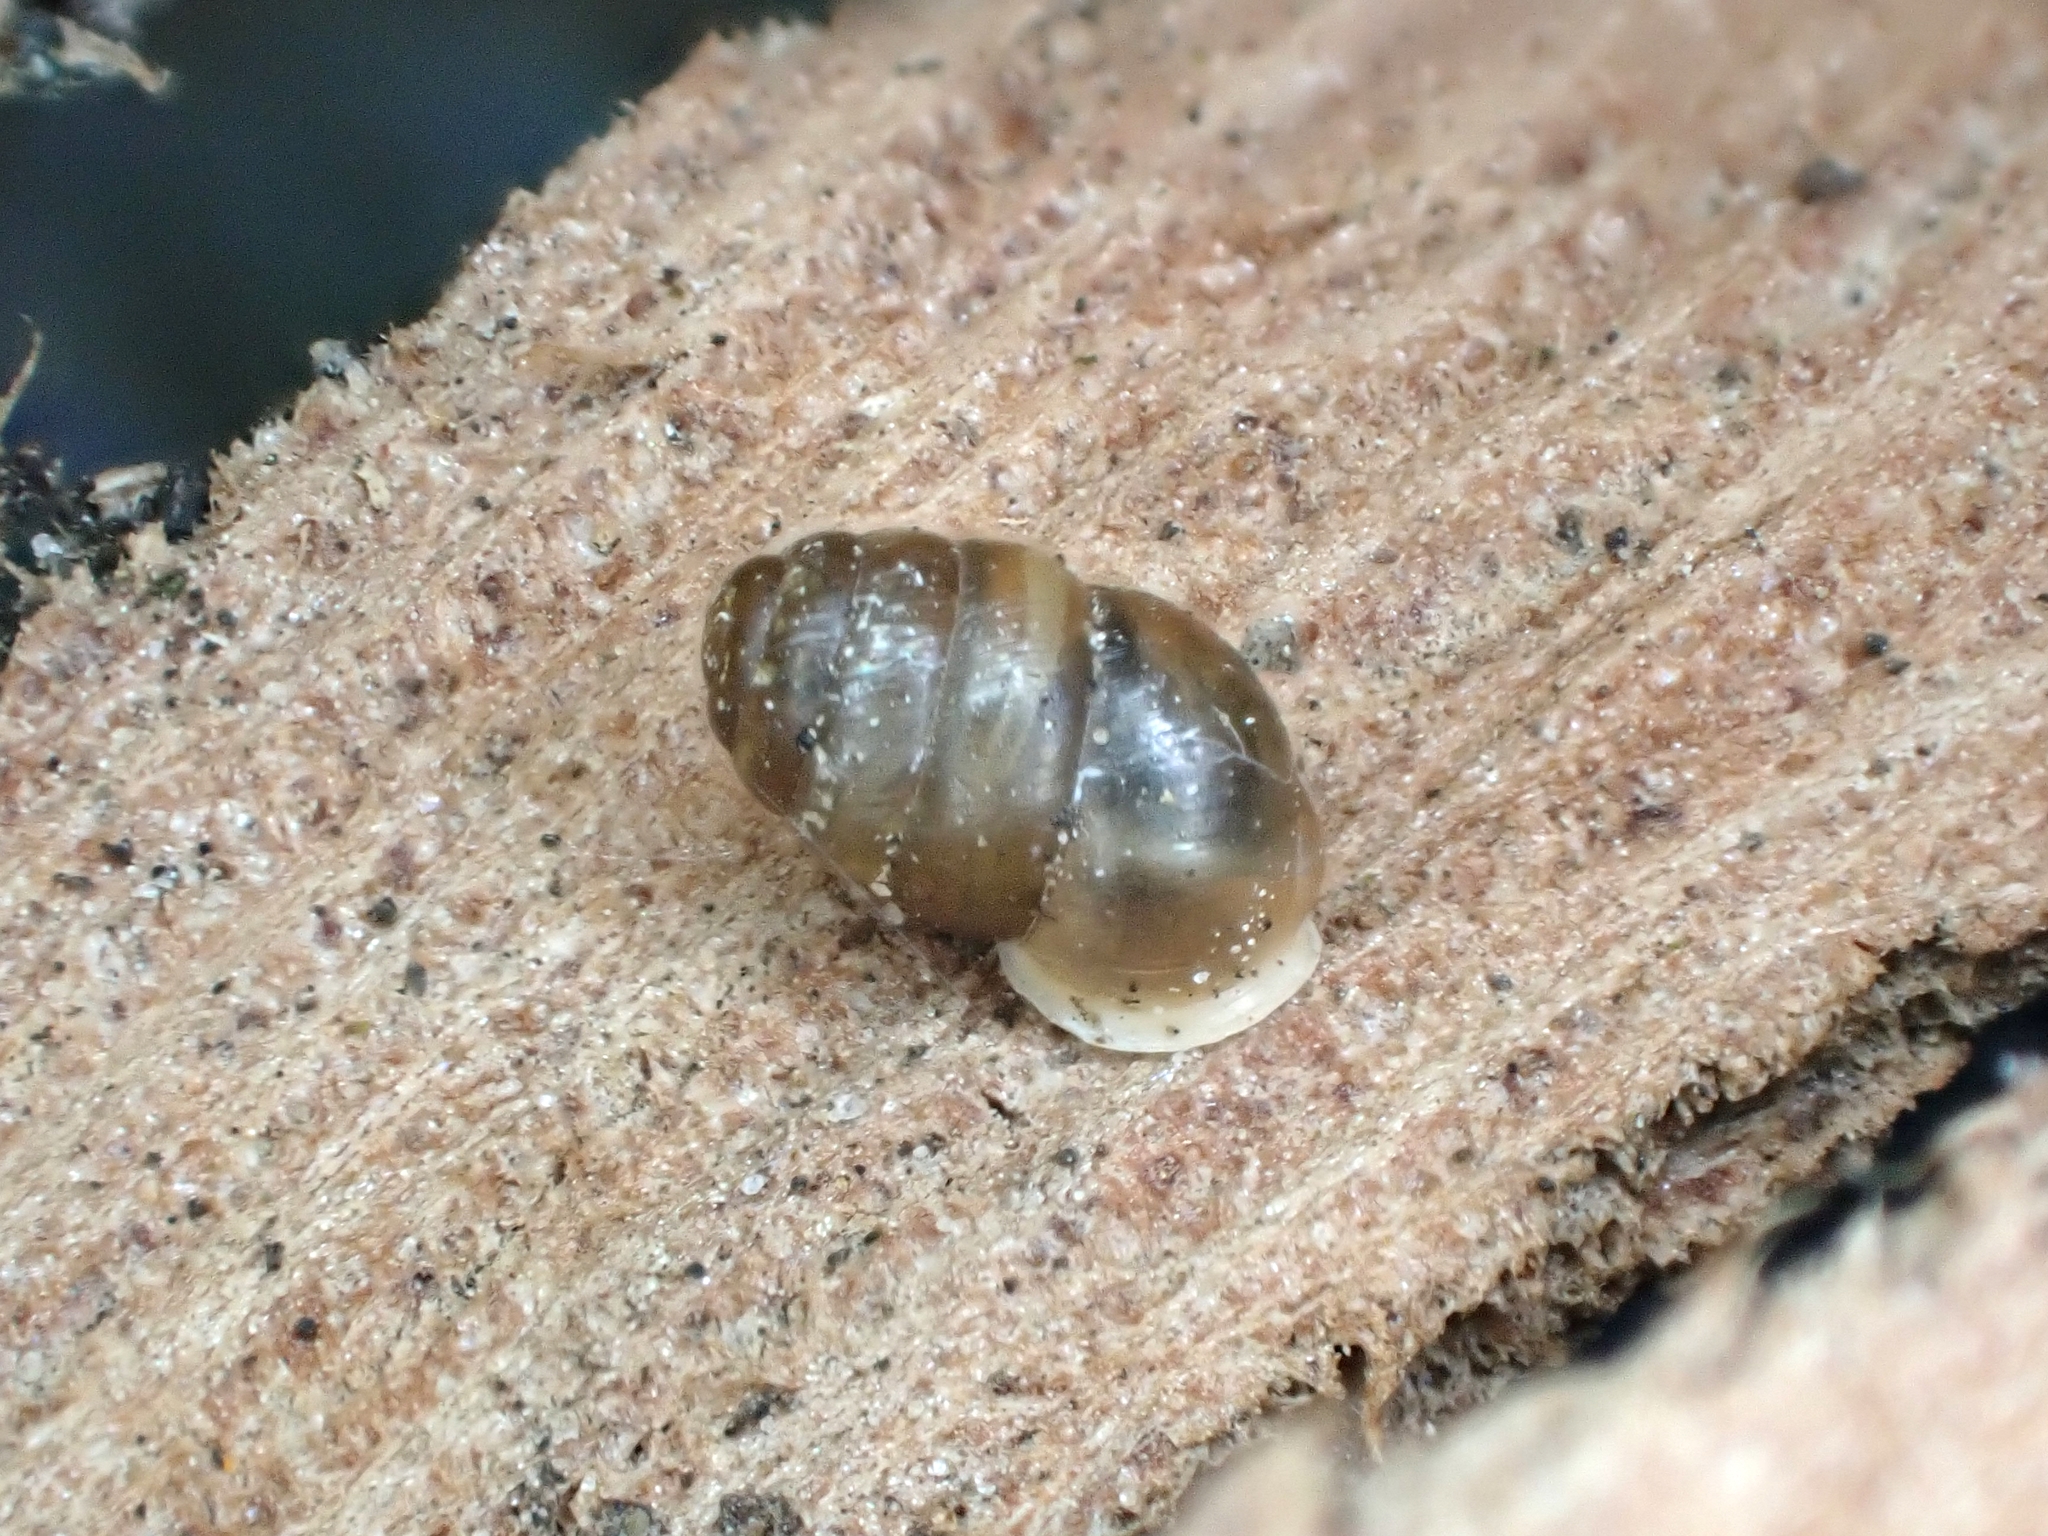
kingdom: Animalia
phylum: Mollusca
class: Gastropoda
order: Stylommatophora
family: Lauriidae
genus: Lauria
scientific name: Lauria cylindracea
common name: Common chrysalis snail
